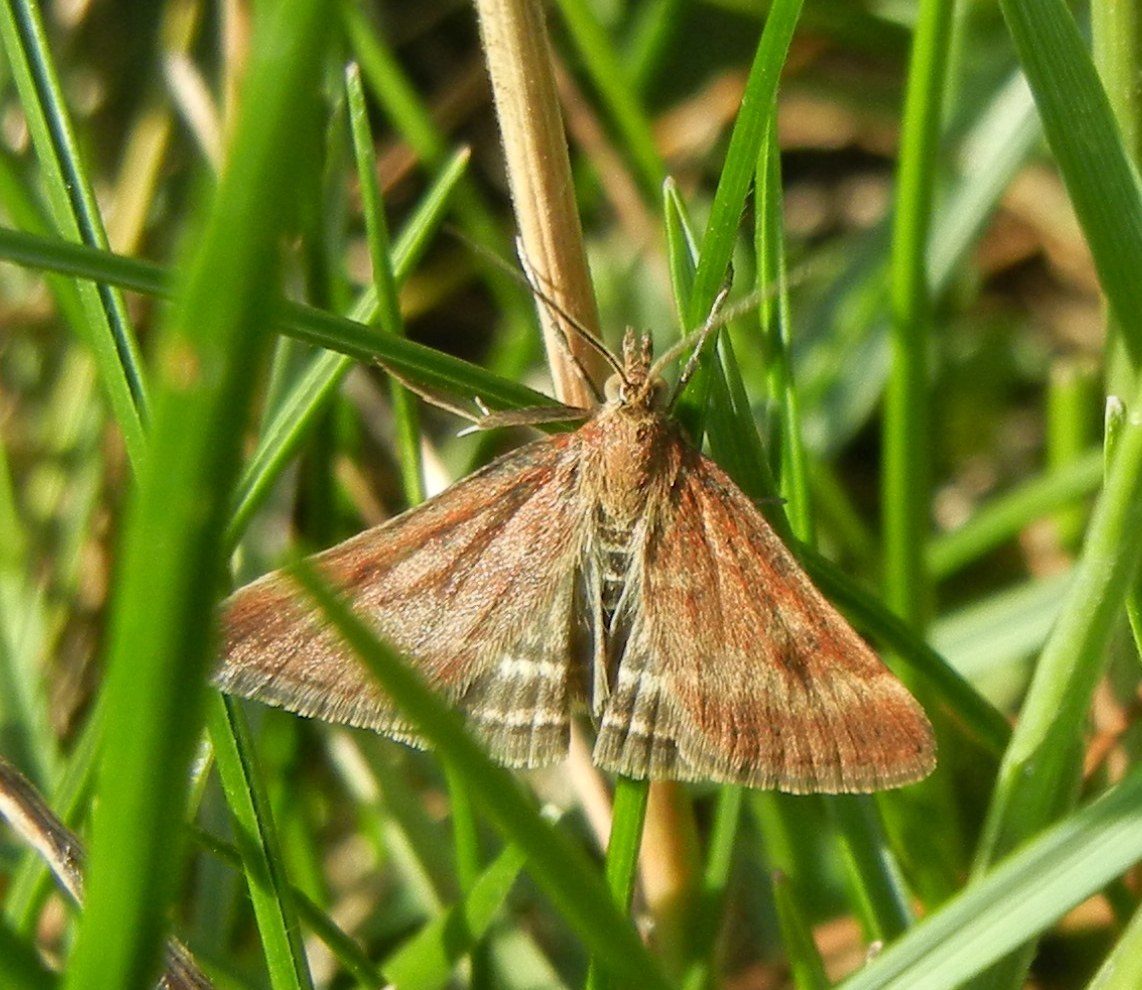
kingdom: Animalia
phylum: Arthropoda
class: Insecta
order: Lepidoptera
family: Crambidae
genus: Pyrausta
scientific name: Pyrausta despicata
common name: Straw-barred pearl
